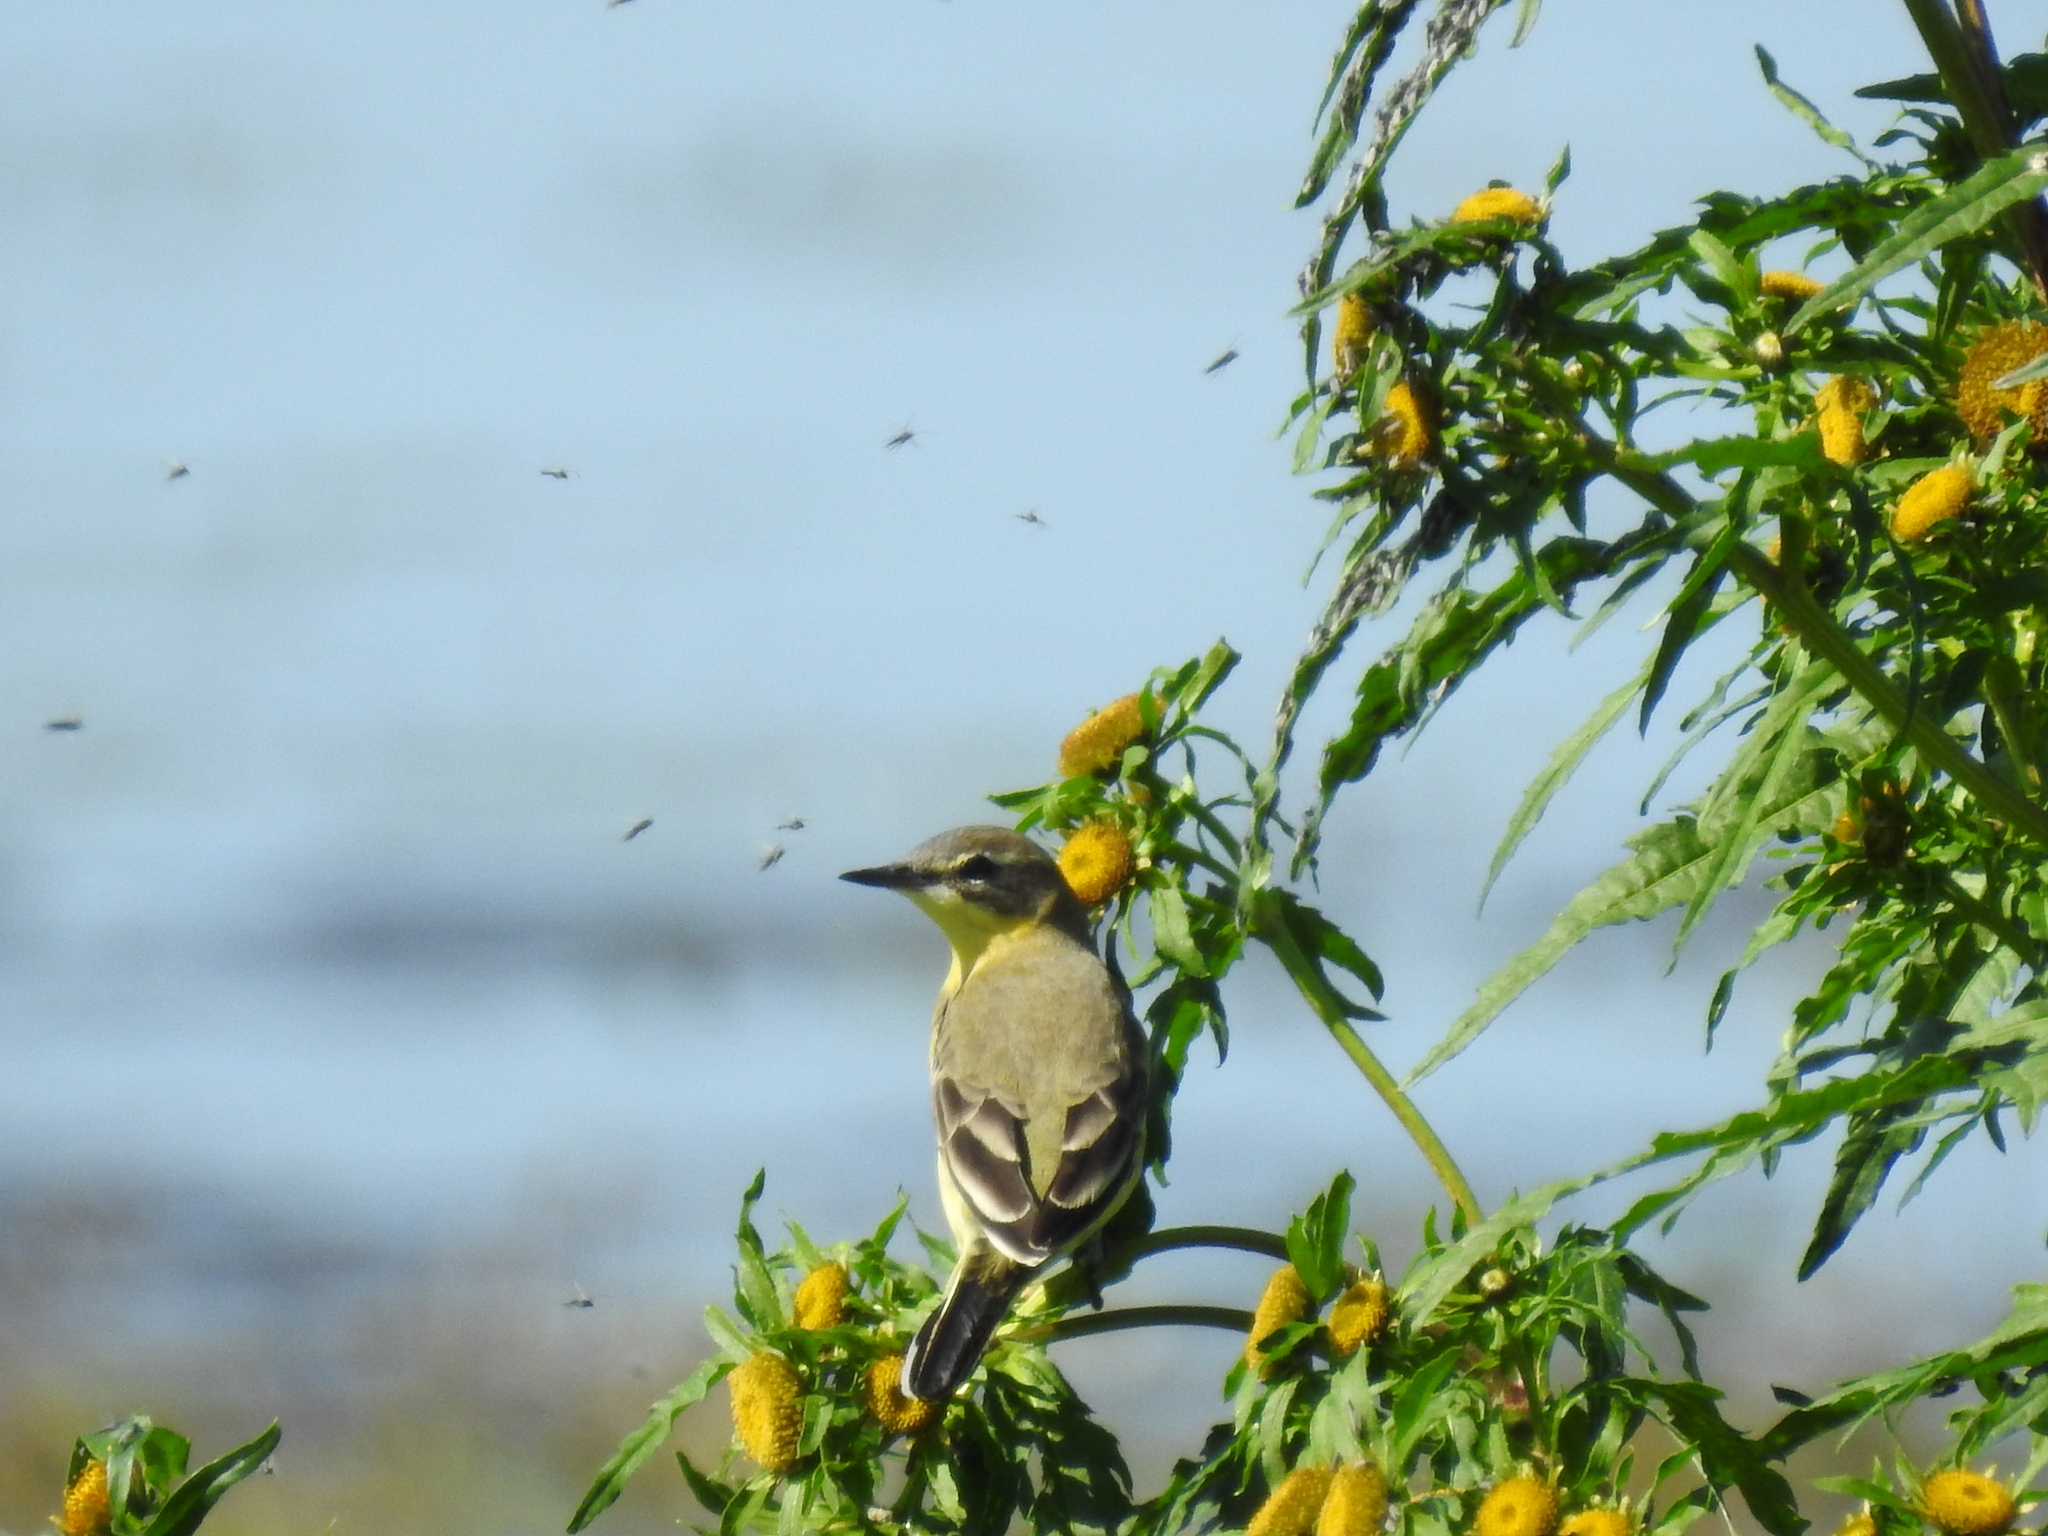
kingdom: Animalia
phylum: Chordata
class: Aves
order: Passeriformes
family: Motacillidae
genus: Motacilla
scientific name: Motacilla flava
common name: Western yellow wagtail
